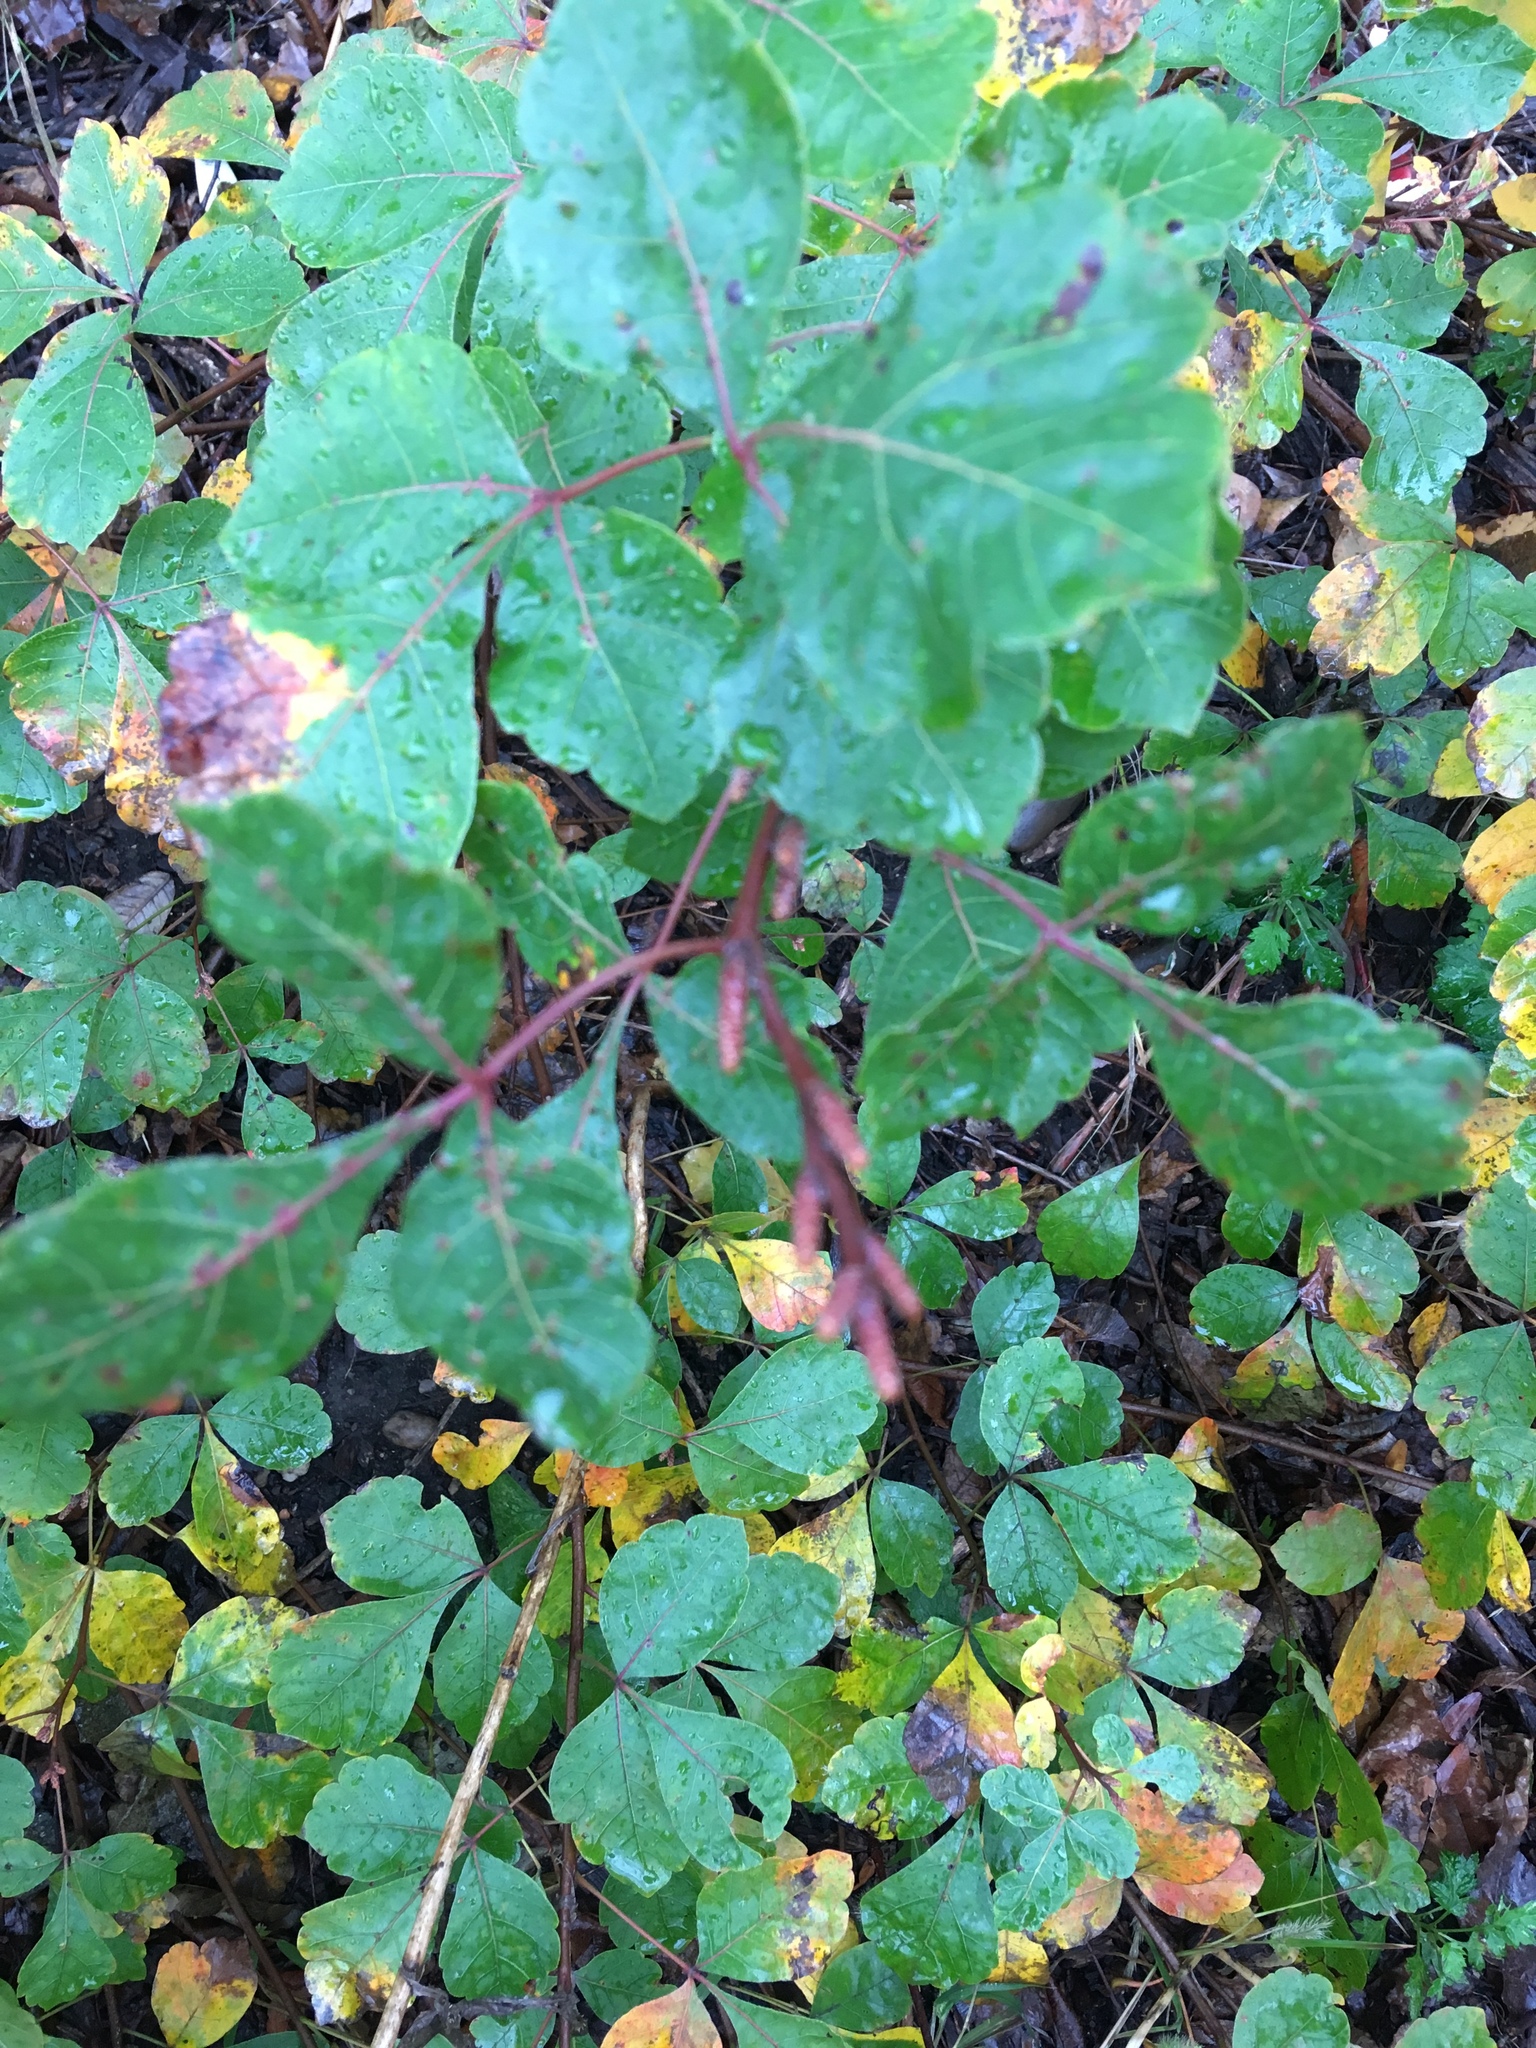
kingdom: Plantae
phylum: Tracheophyta
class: Magnoliopsida
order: Sapindales
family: Anacardiaceae
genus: Rhus
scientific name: Rhus aromatica
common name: Aromatic sumac
